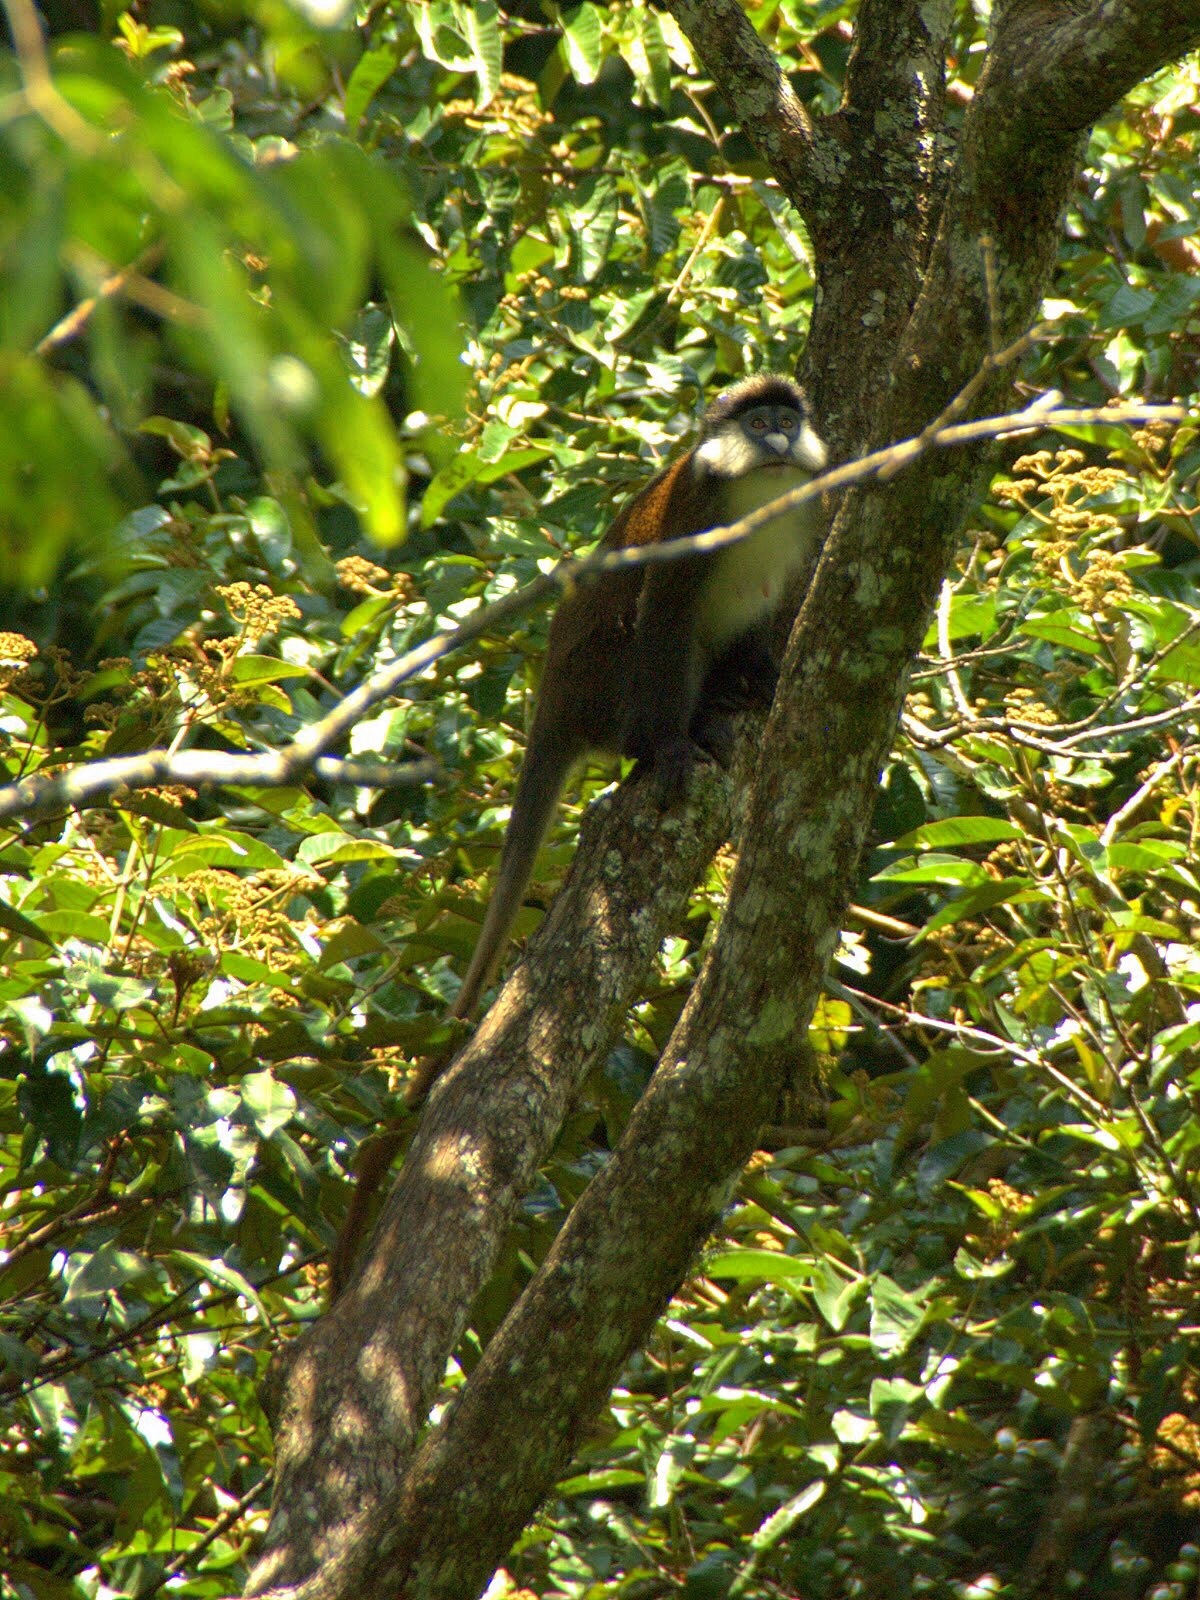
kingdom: Animalia
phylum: Chordata
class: Mammalia
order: Primates
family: Cercopithecidae
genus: Cercopithecus
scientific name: Cercopithecus ascanius
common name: Red-tailed monkey
